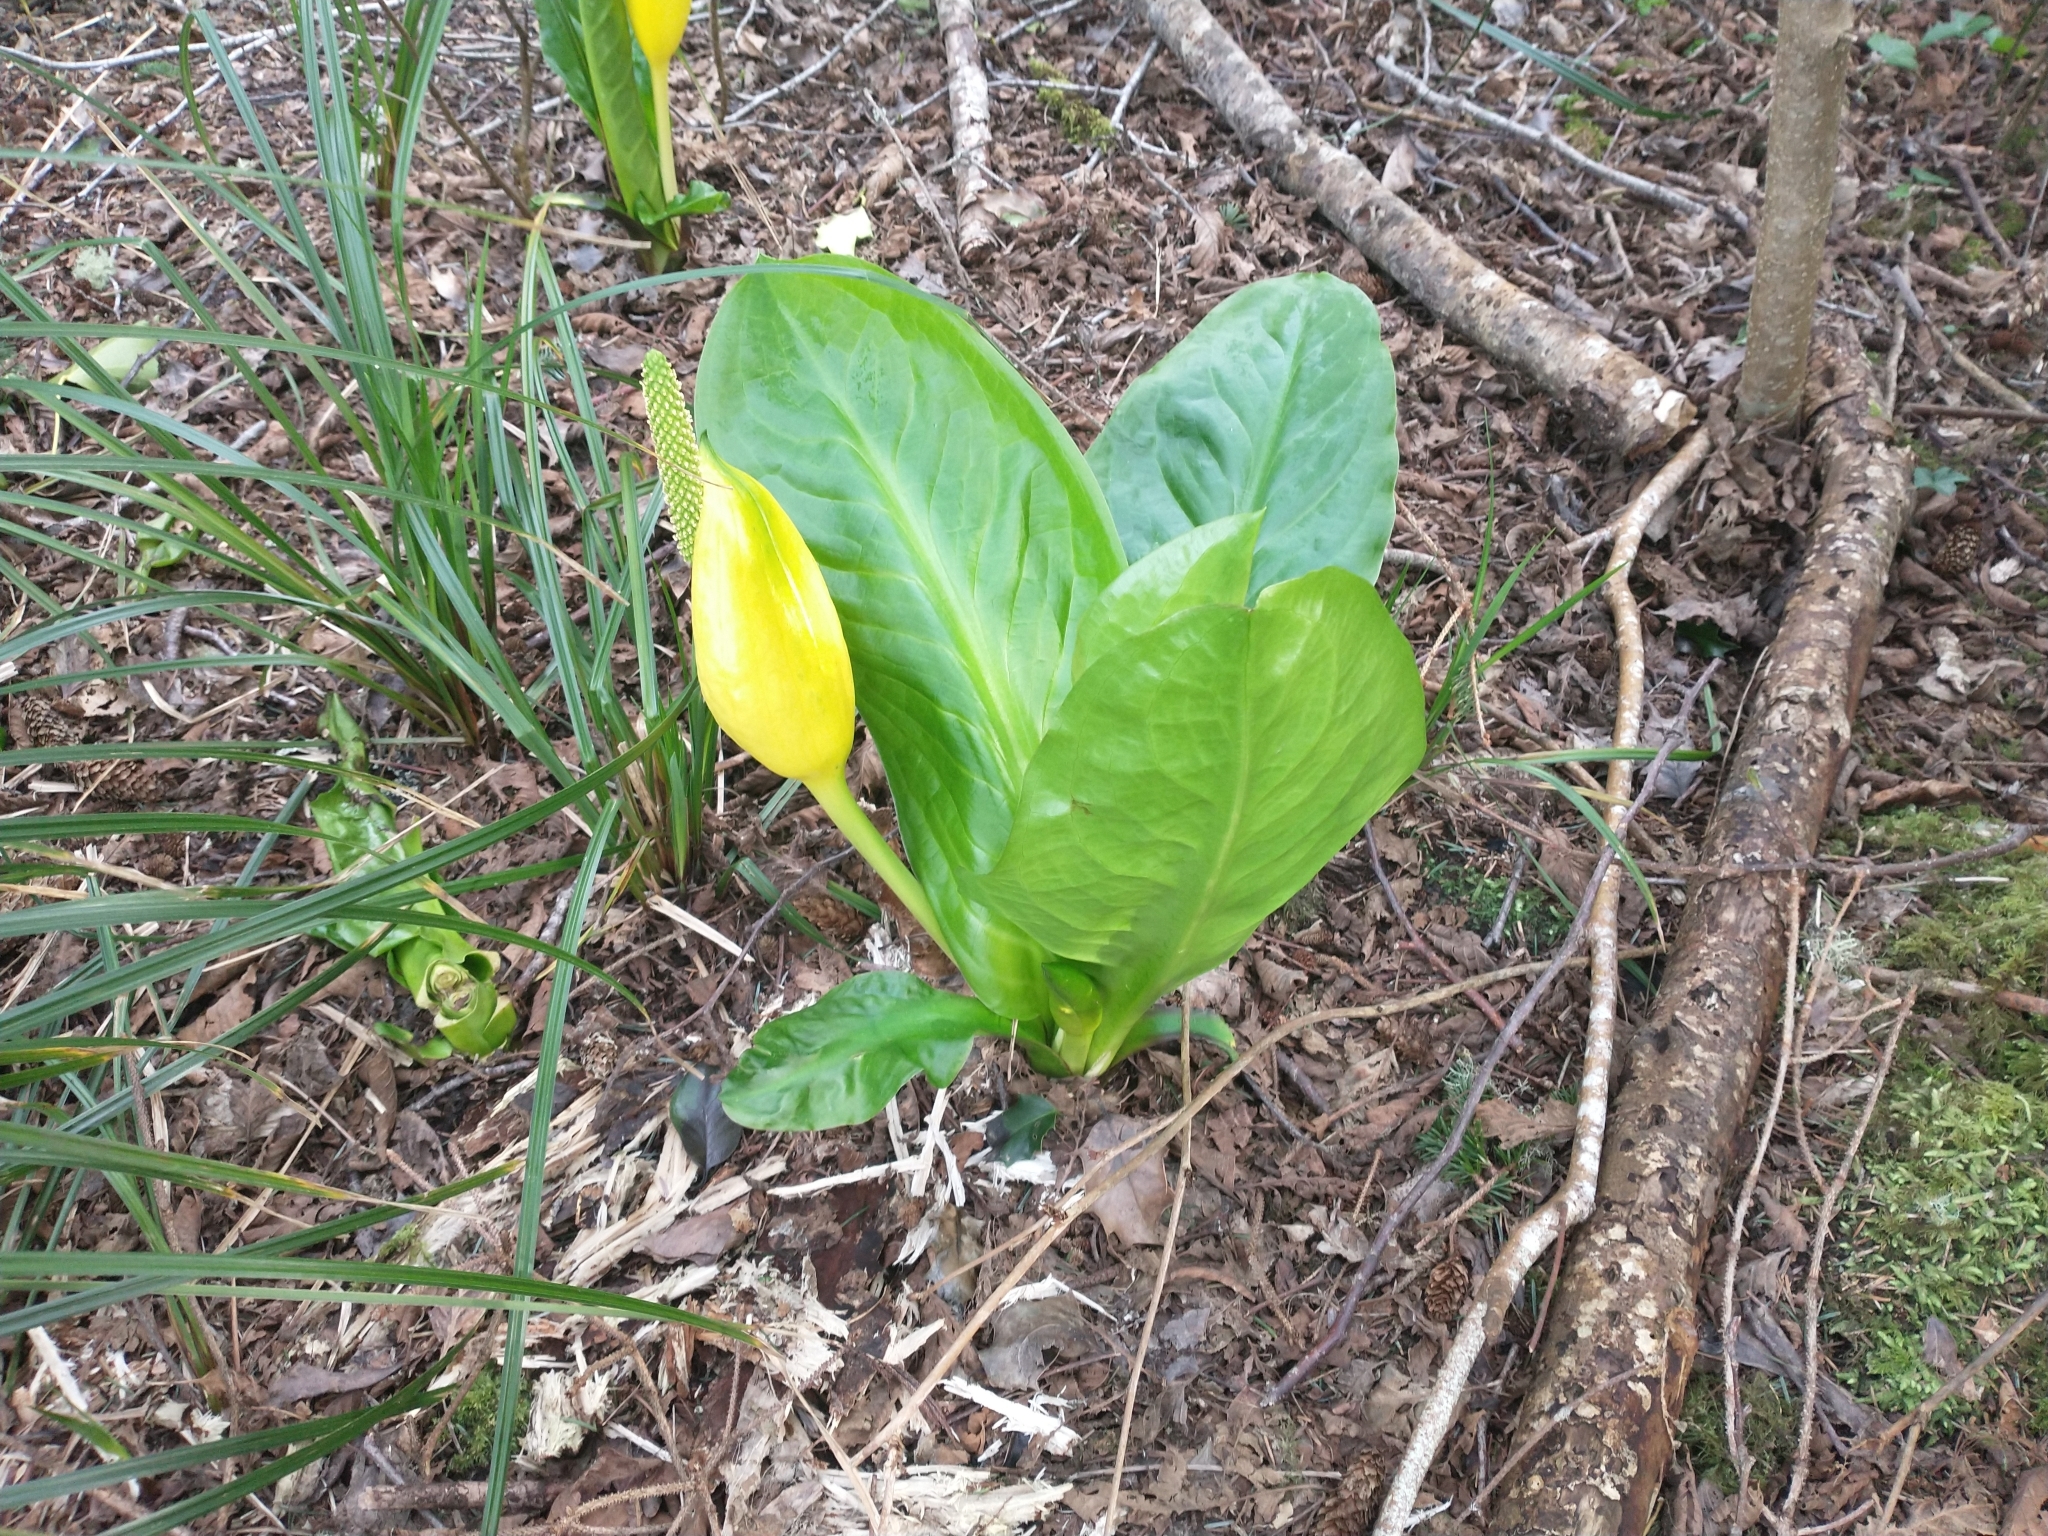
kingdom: Plantae
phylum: Tracheophyta
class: Liliopsida
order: Alismatales
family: Araceae
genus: Lysichiton
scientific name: Lysichiton americanus
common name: American skunk cabbage
